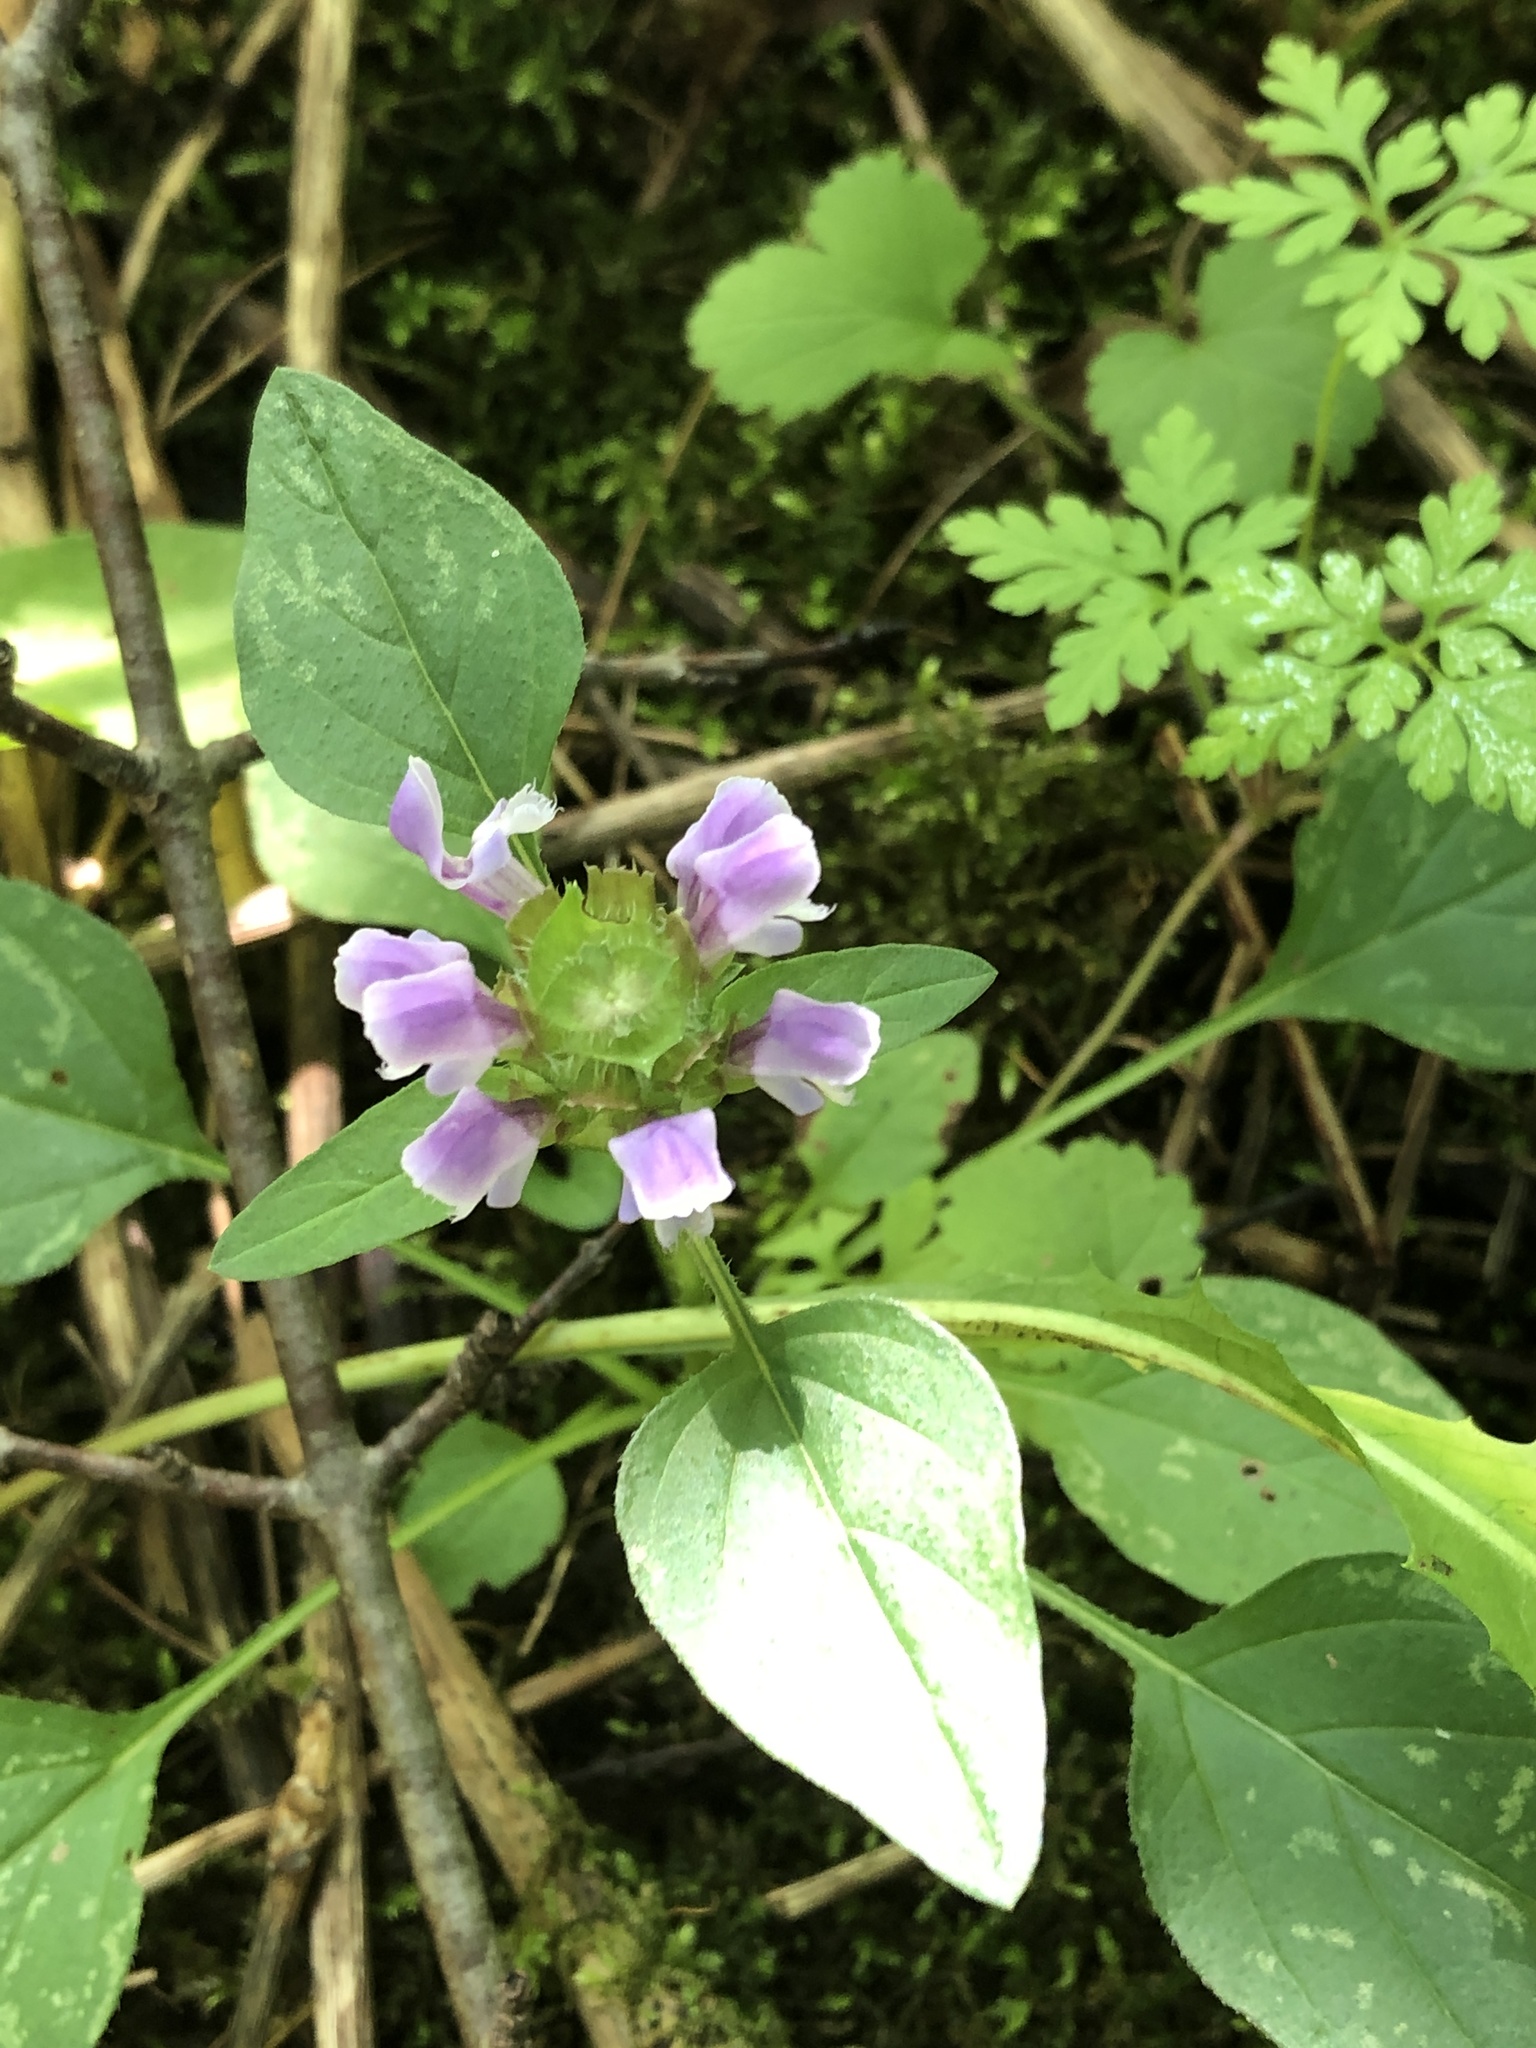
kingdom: Plantae
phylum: Tracheophyta
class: Magnoliopsida
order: Lamiales
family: Lamiaceae
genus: Prunella
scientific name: Prunella vulgaris
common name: Heal-all
